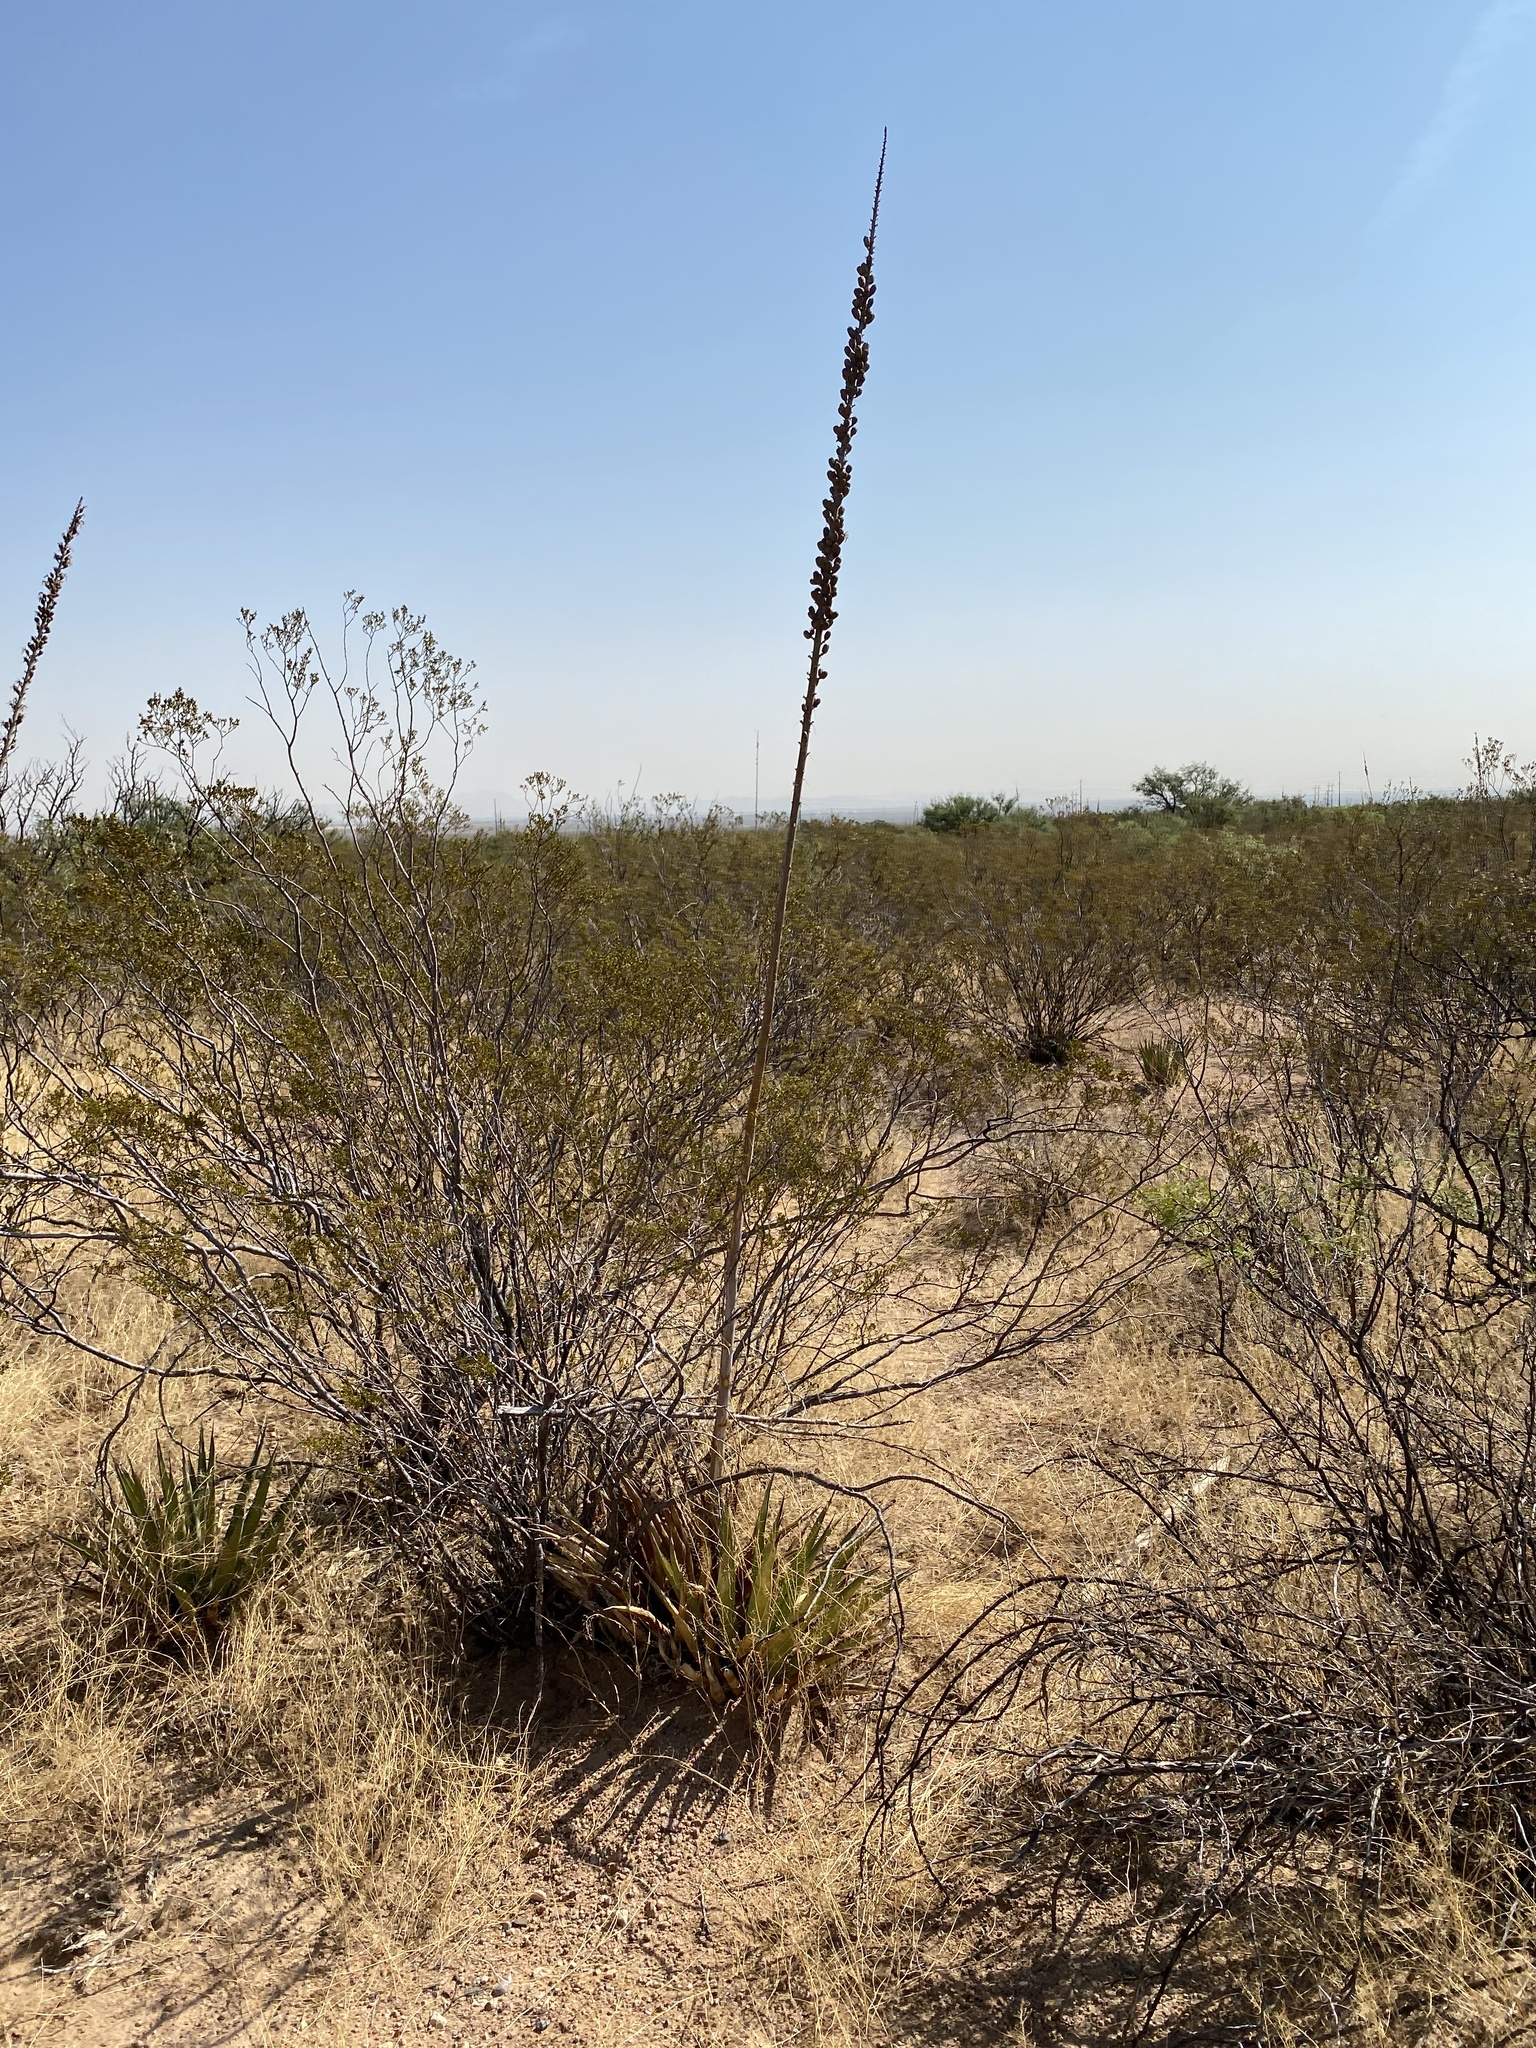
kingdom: Plantae
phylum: Tracheophyta
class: Liliopsida
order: Asparagales
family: Asparagaceae
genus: Agave
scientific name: Agave lechuguilla
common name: Lecheguilla agave
